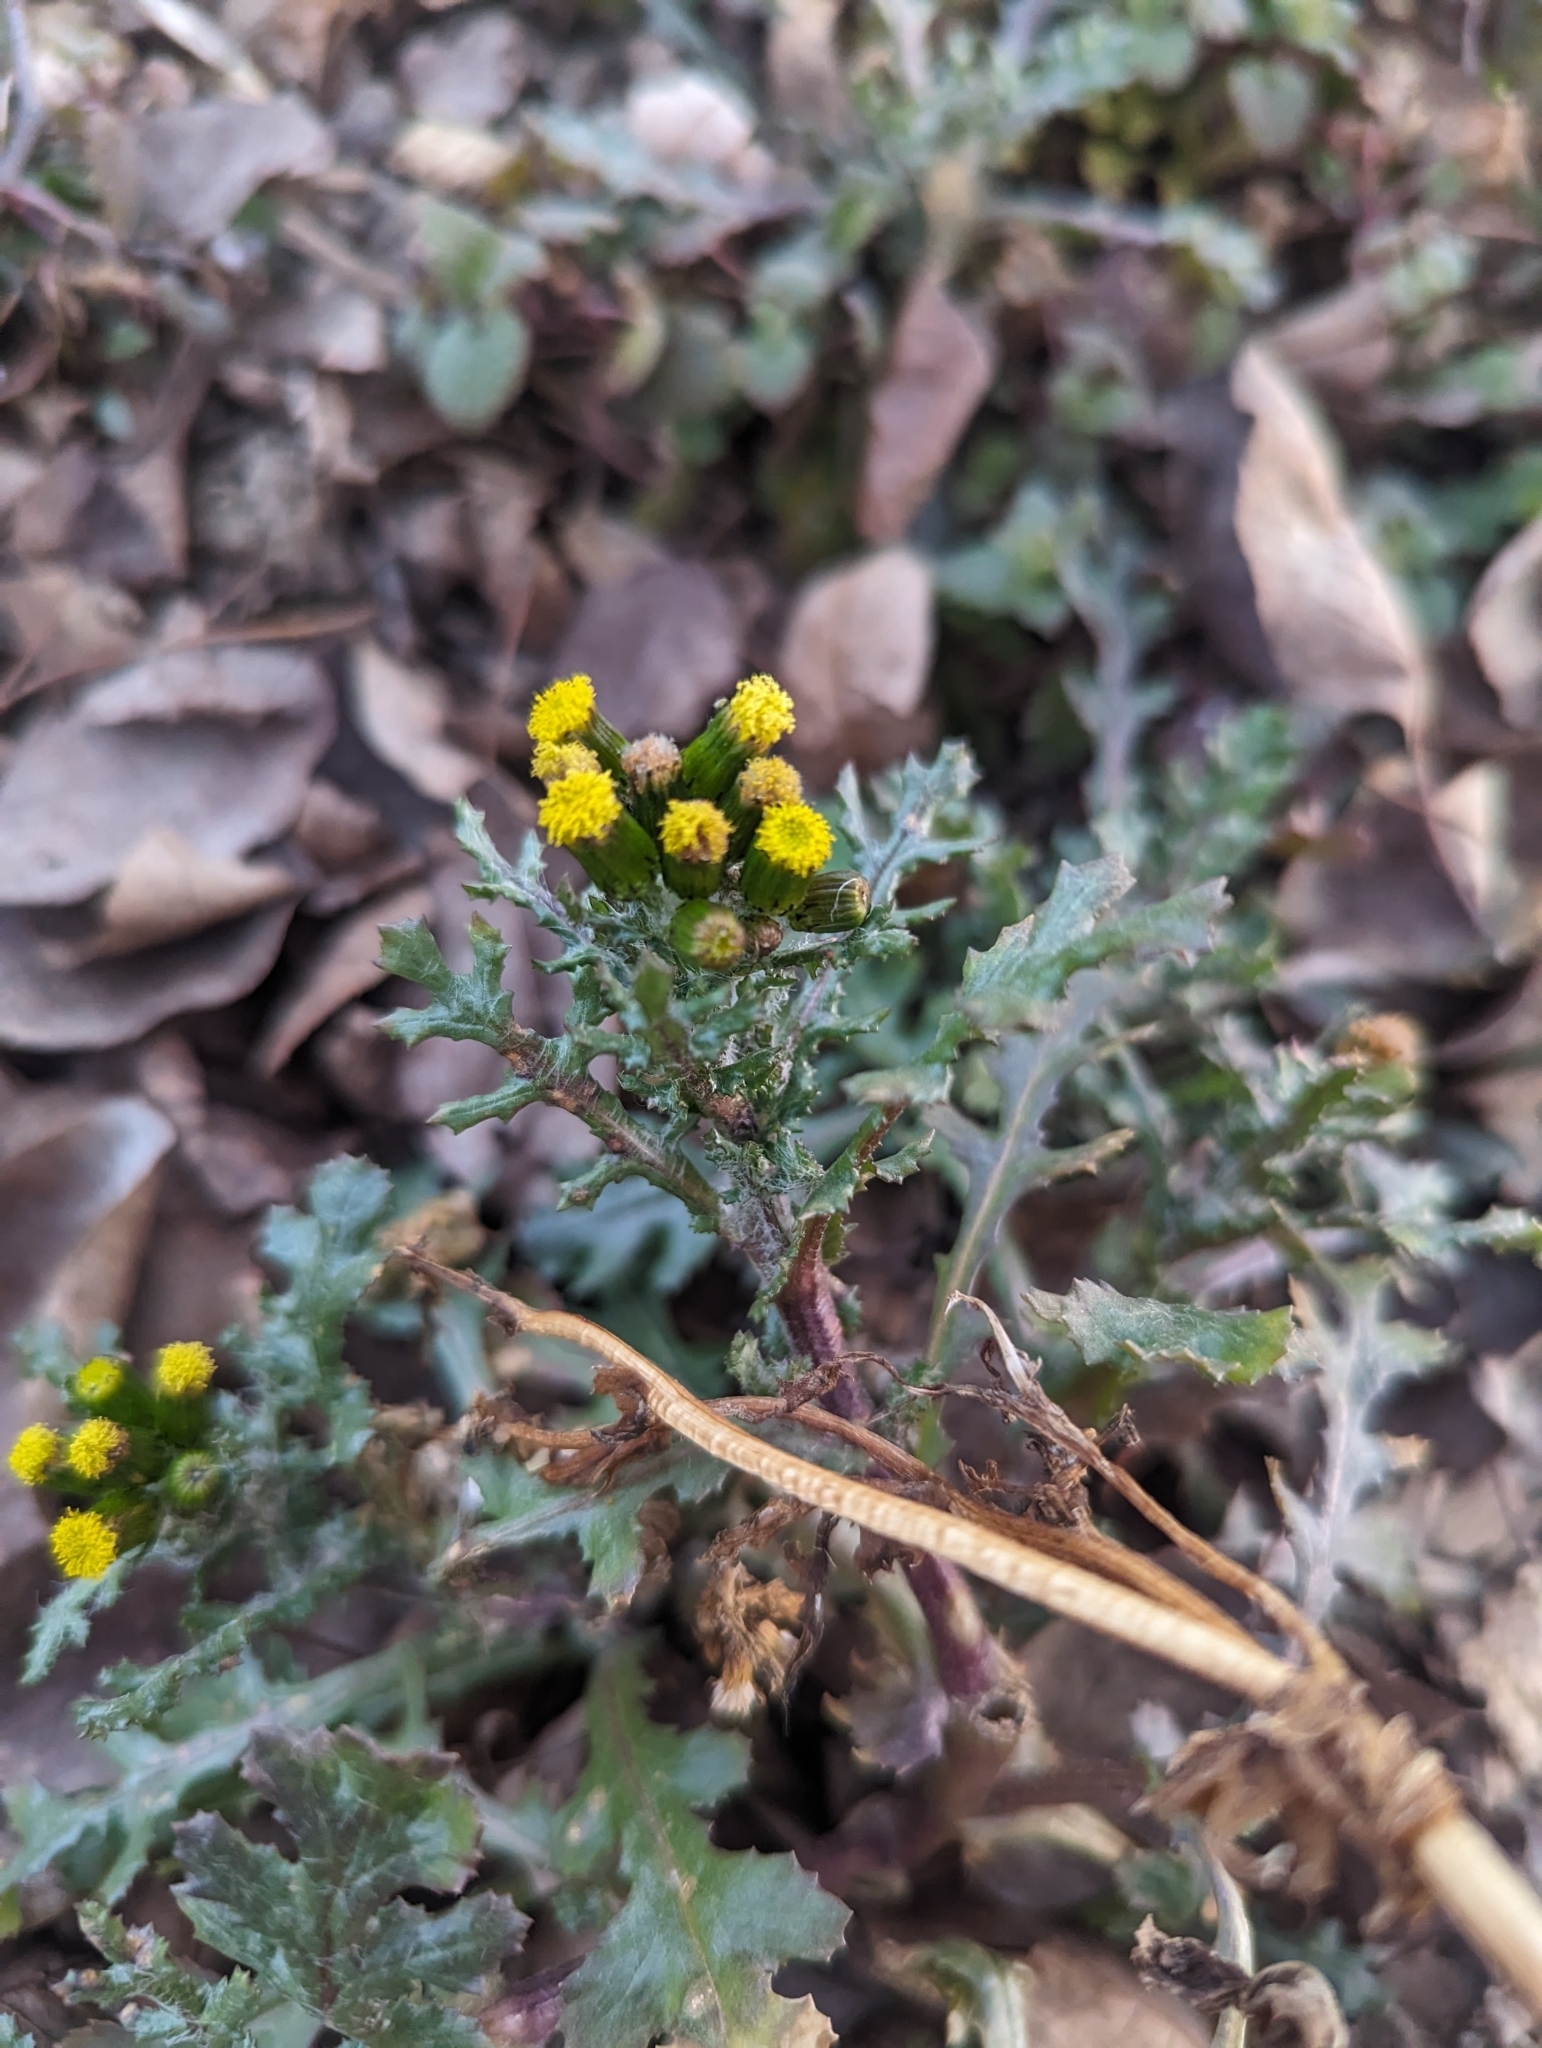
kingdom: Plantae
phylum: Tracheophyta
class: Magnoliopsida
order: Asterales
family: Asteraceae
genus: Senecio
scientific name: Senecio vulgaris
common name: Old-man-in-the-spring
